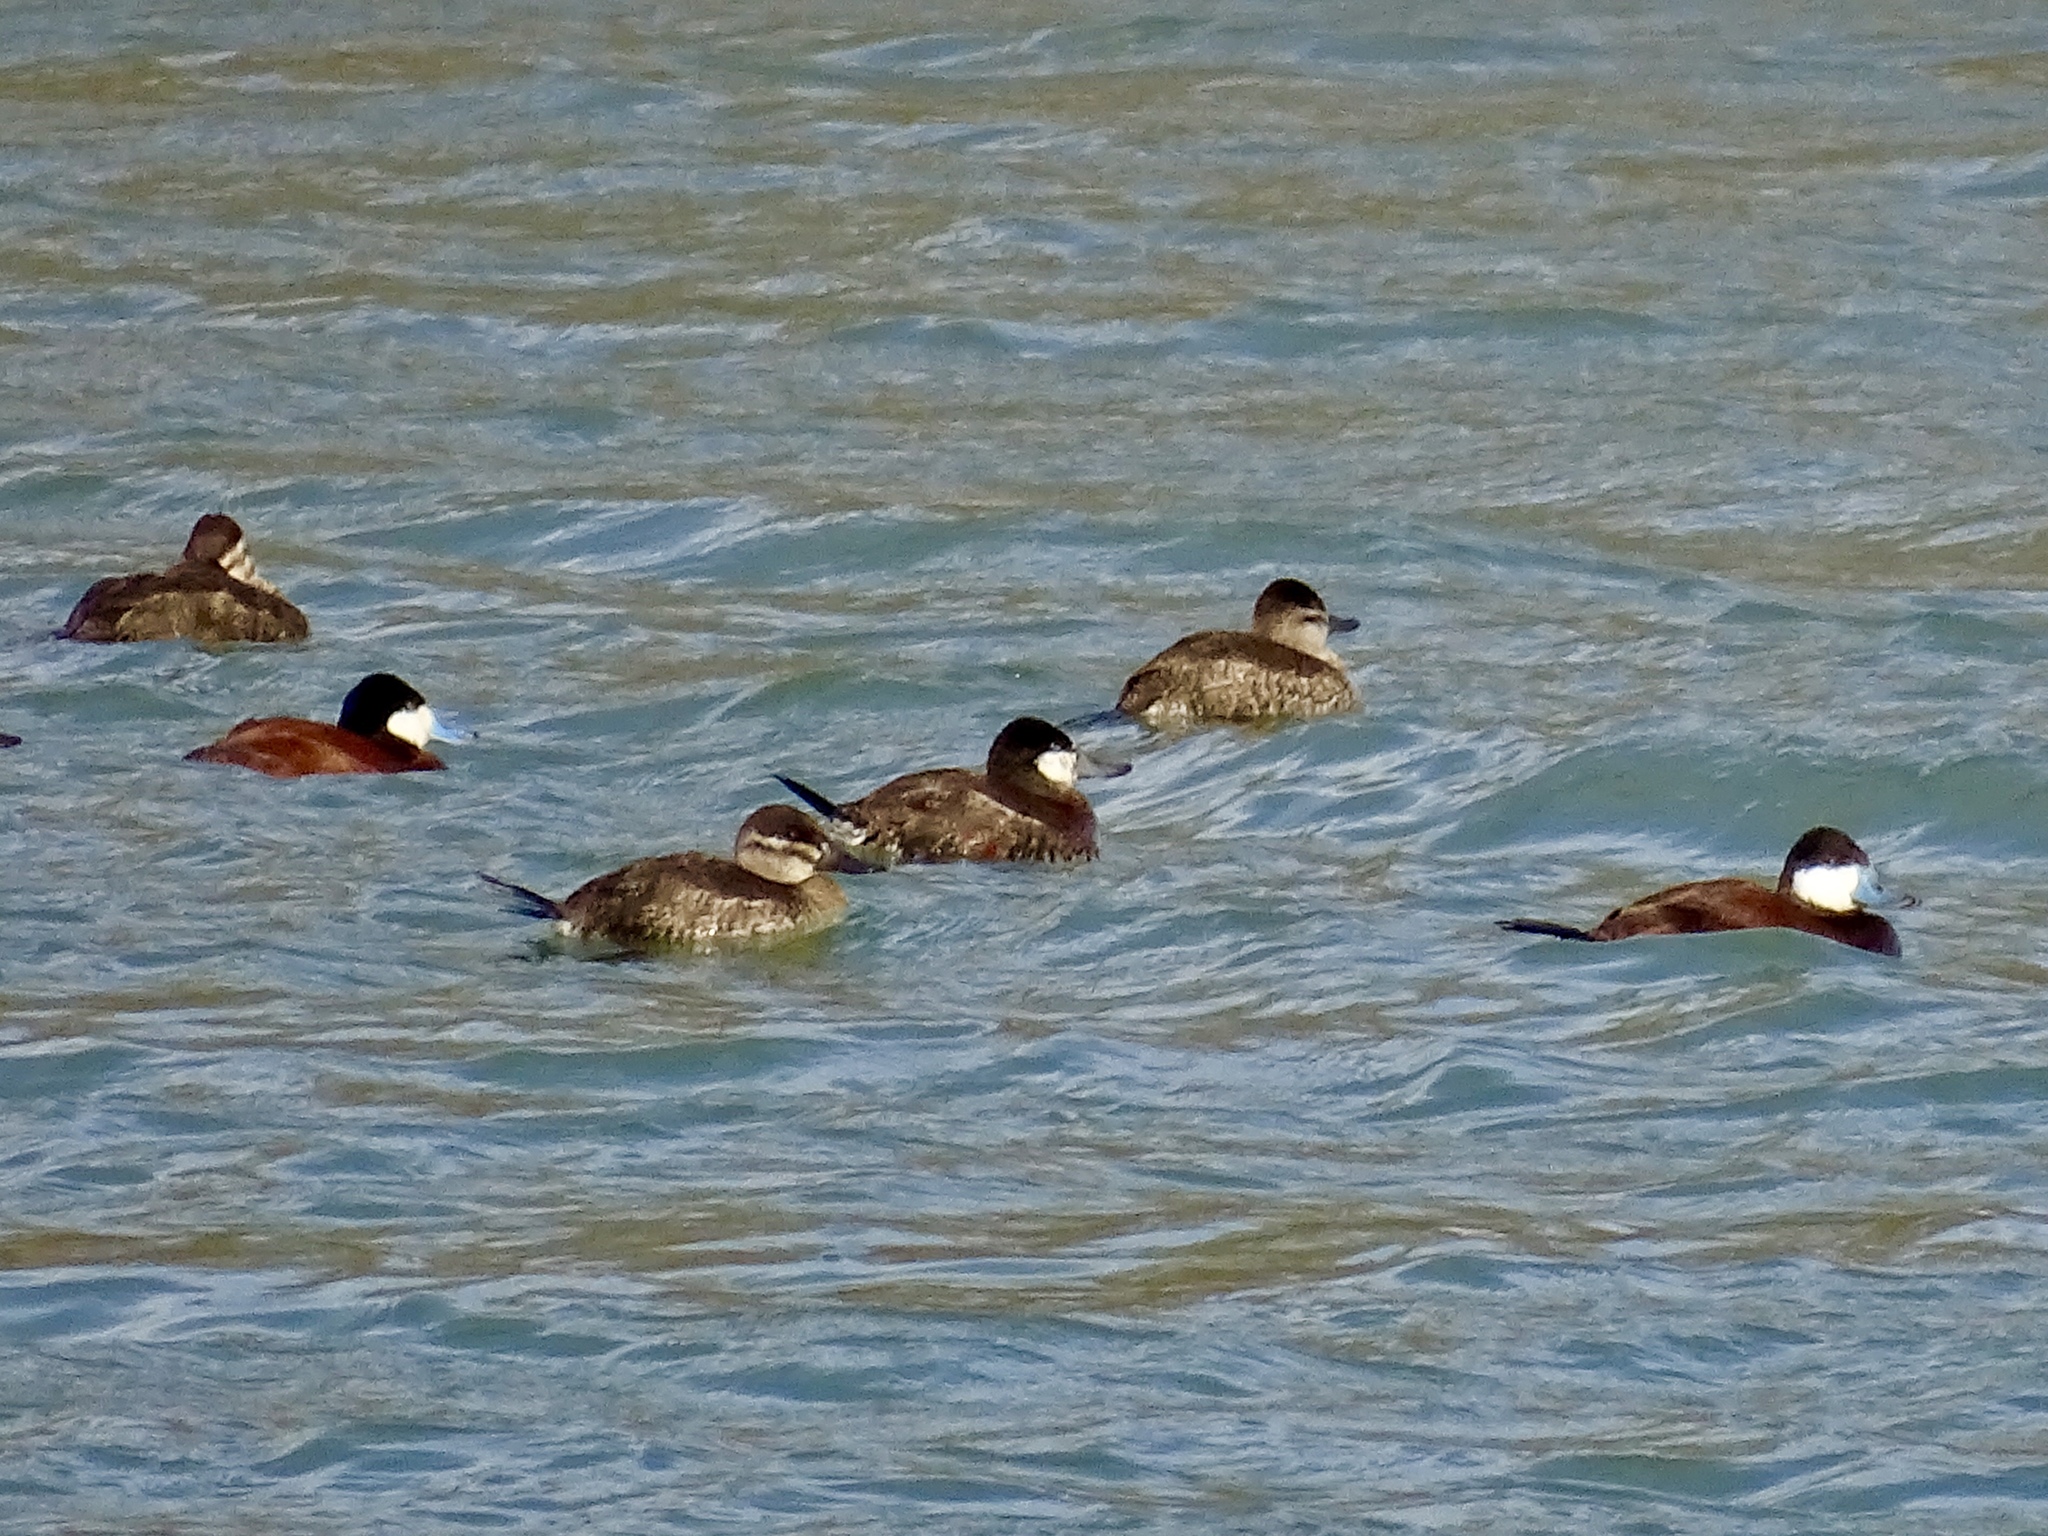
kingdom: Animalia
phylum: Chordata
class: Aves
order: Anseriformes
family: Anatidae
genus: Oxyura
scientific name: Oxyura jamaicensis
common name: Ruddy duck
